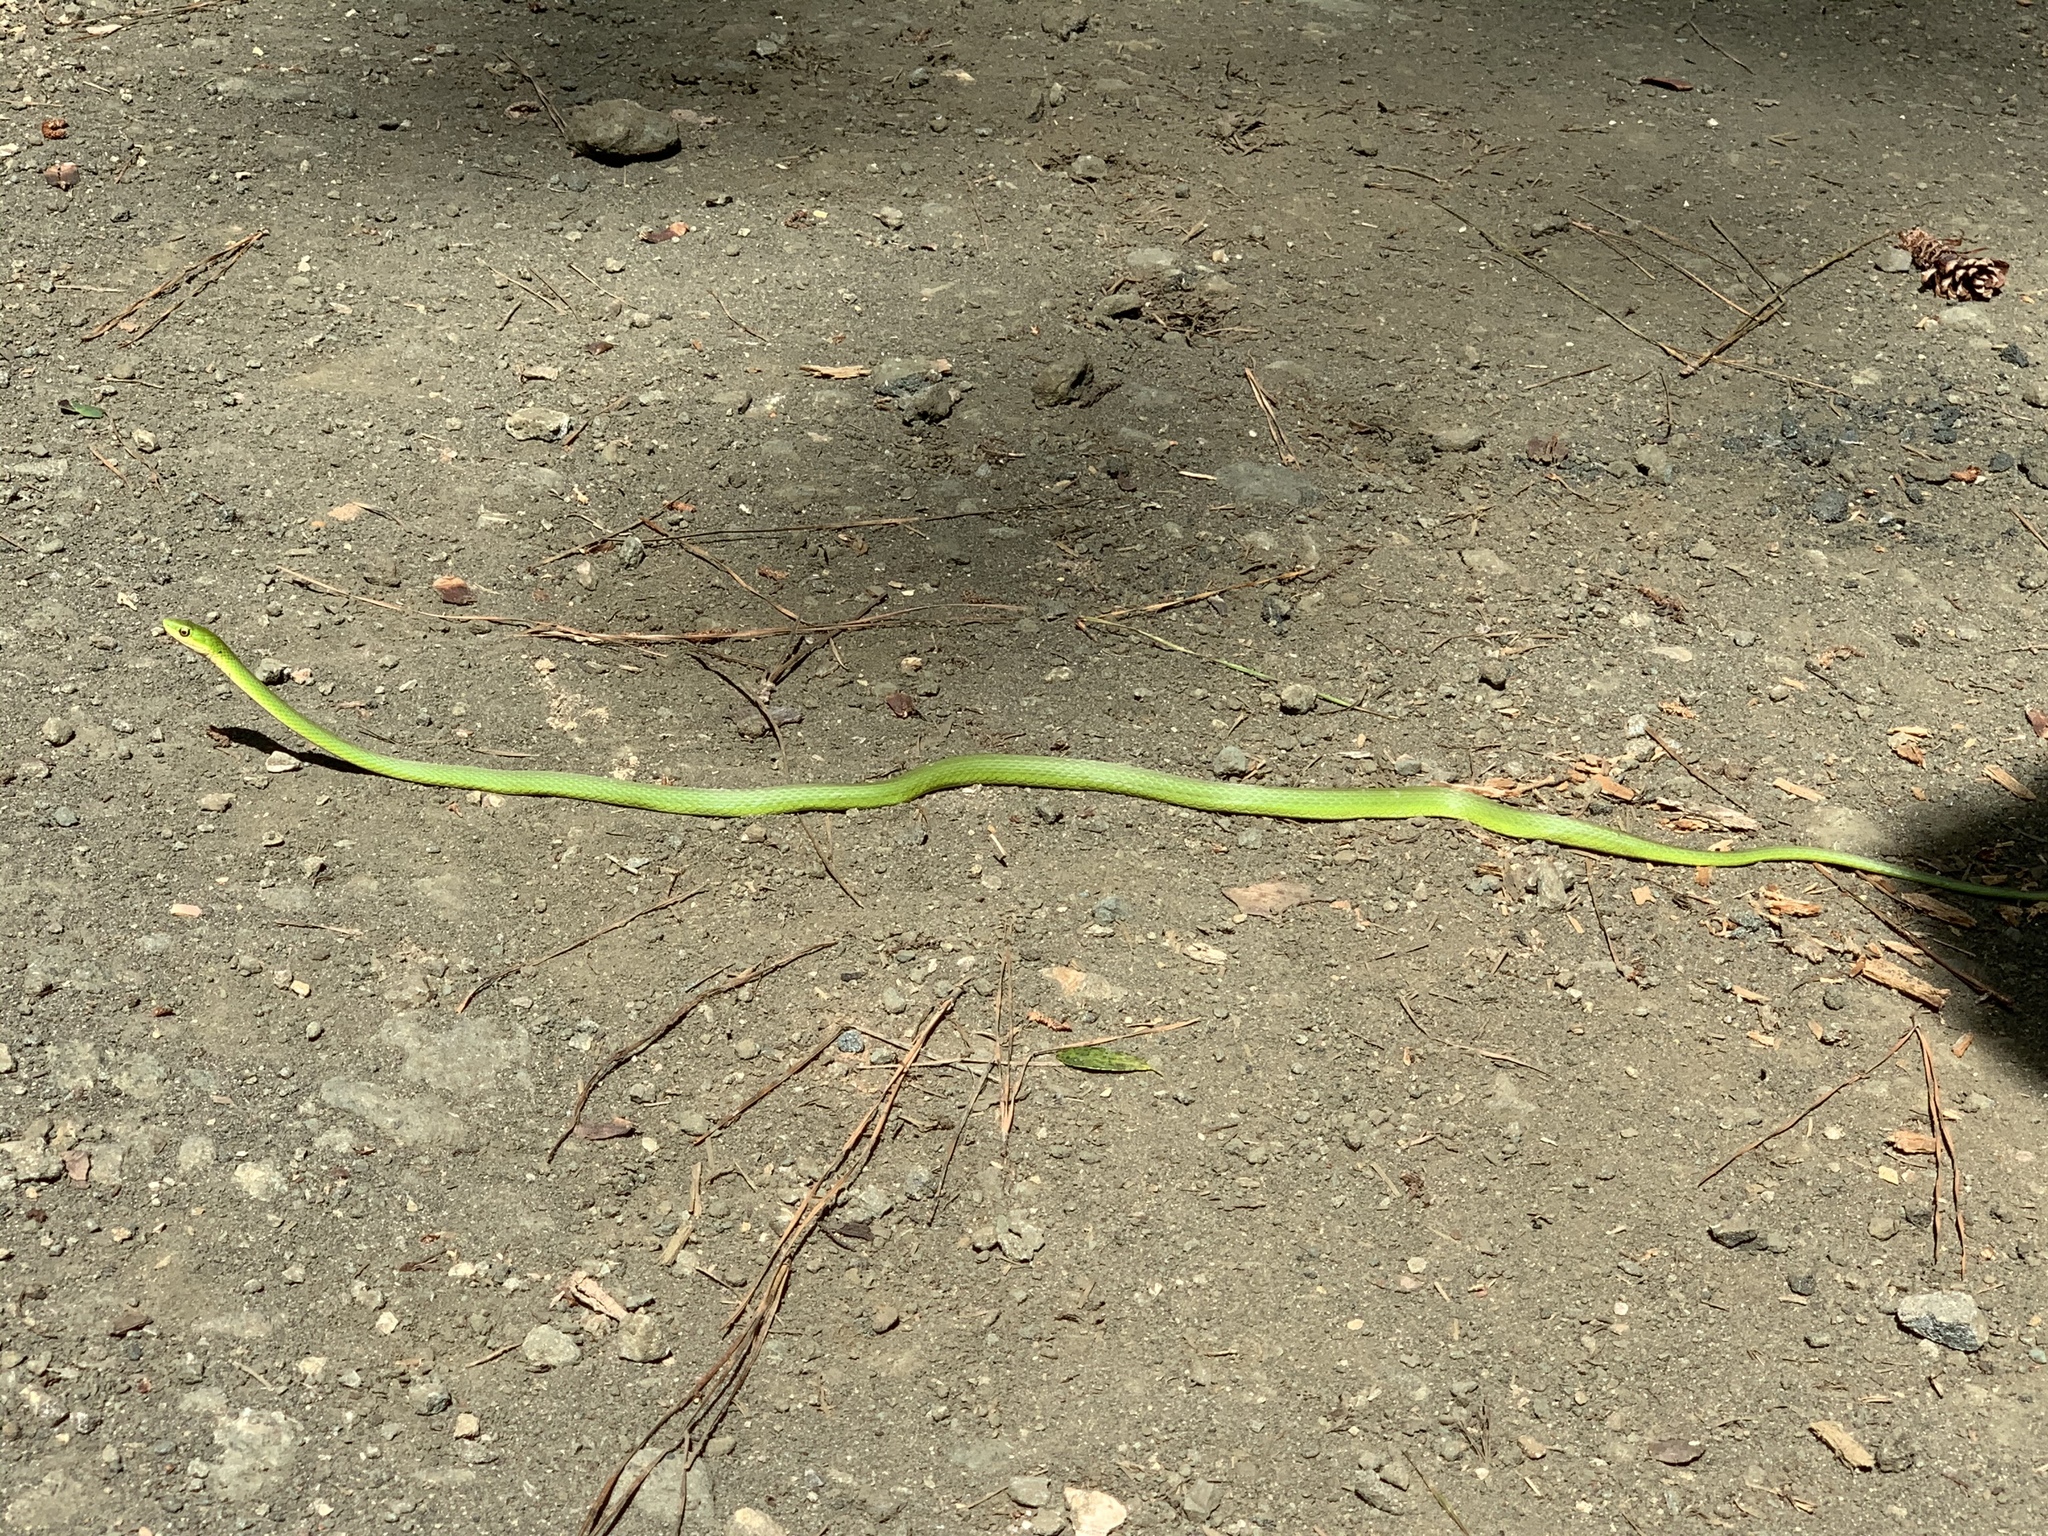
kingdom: Animalia
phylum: Chordata
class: Squamata
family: Colubridae
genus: Opheodrys
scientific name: Opheodrys aestivus
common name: Rough greensnake
